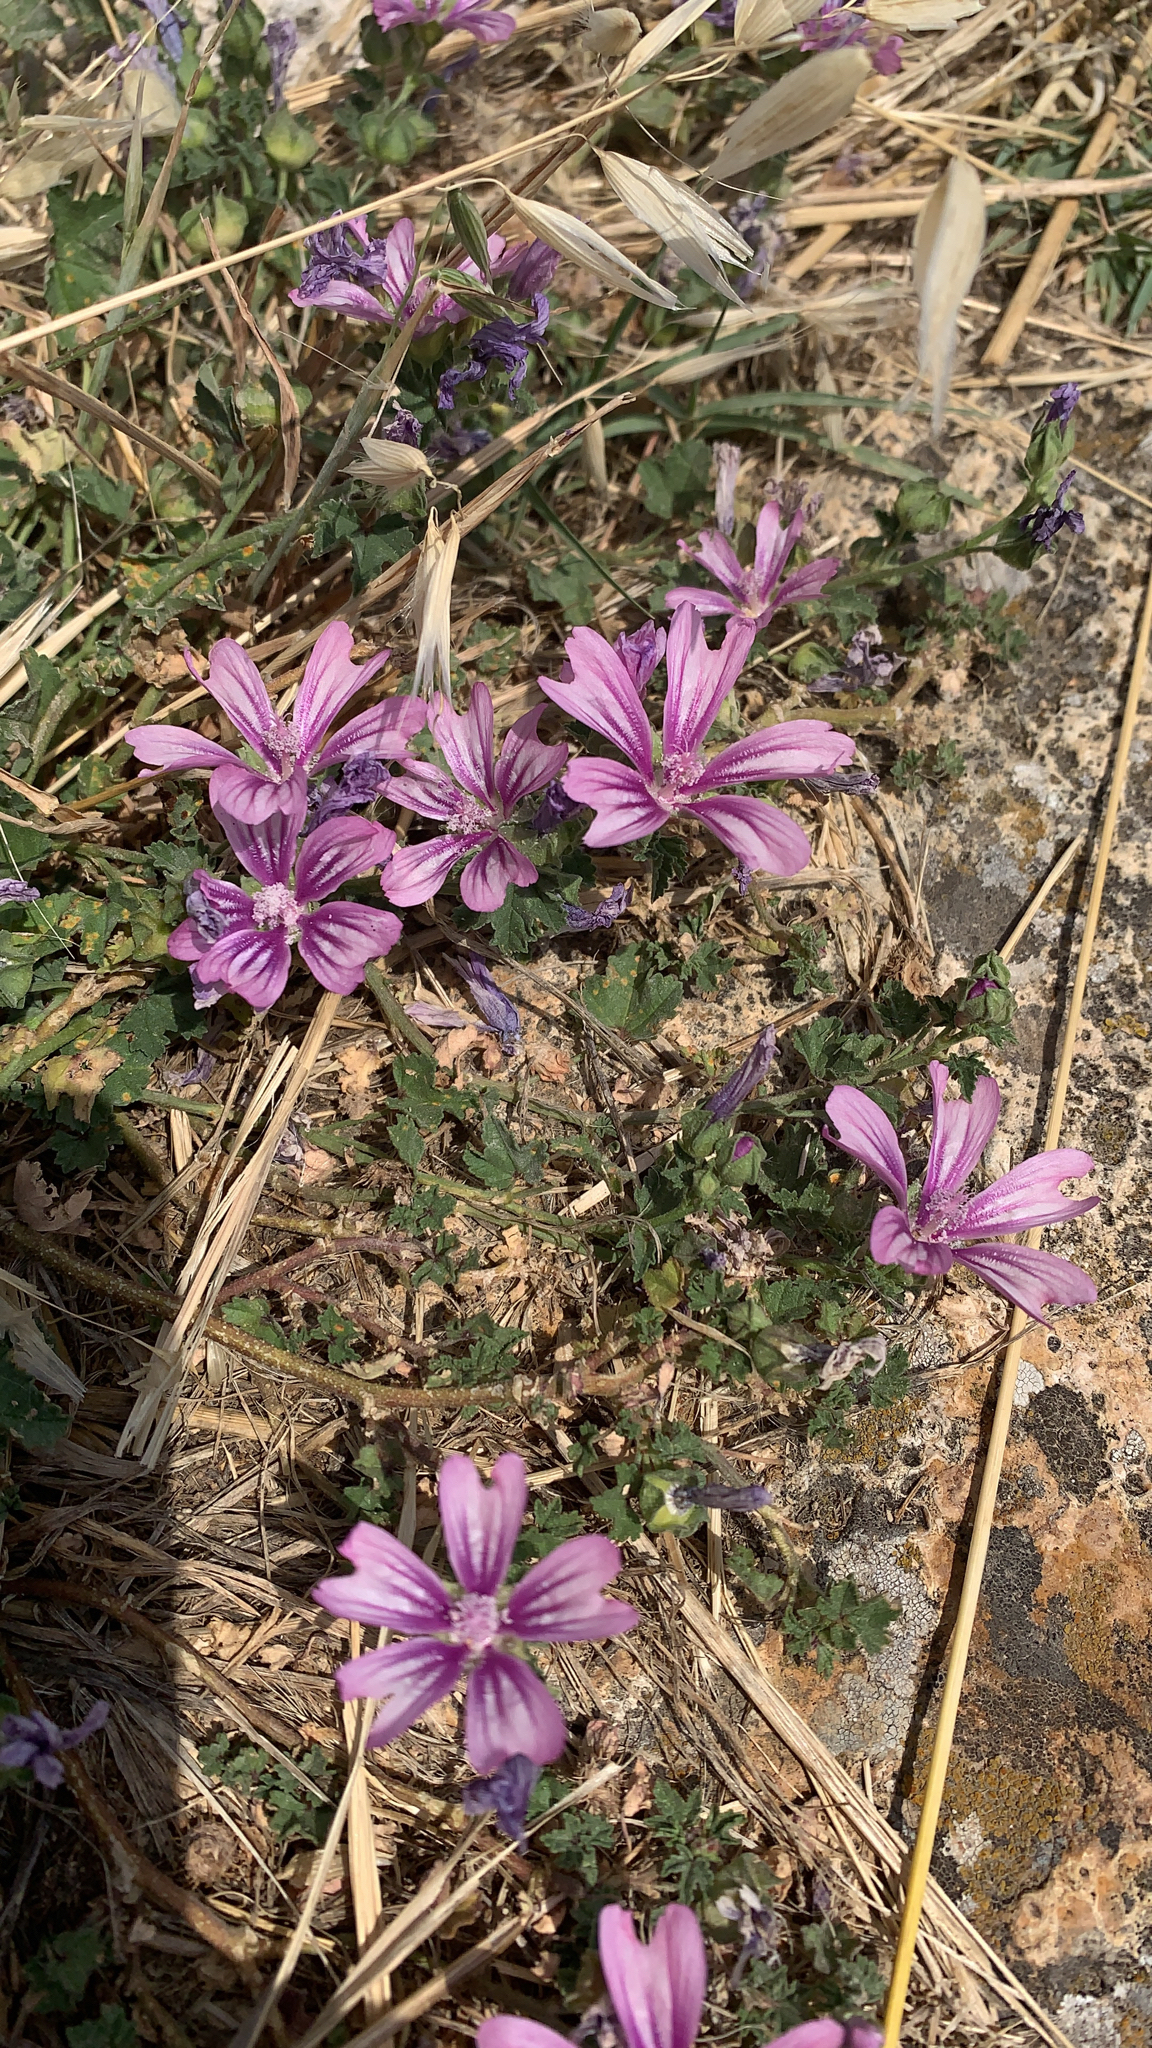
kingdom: Plantae
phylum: Tracheophyta
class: Magnoliopsida
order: Malvales
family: Malvaceae
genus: Malva
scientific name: Malva sylvestris
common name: Common mallow
